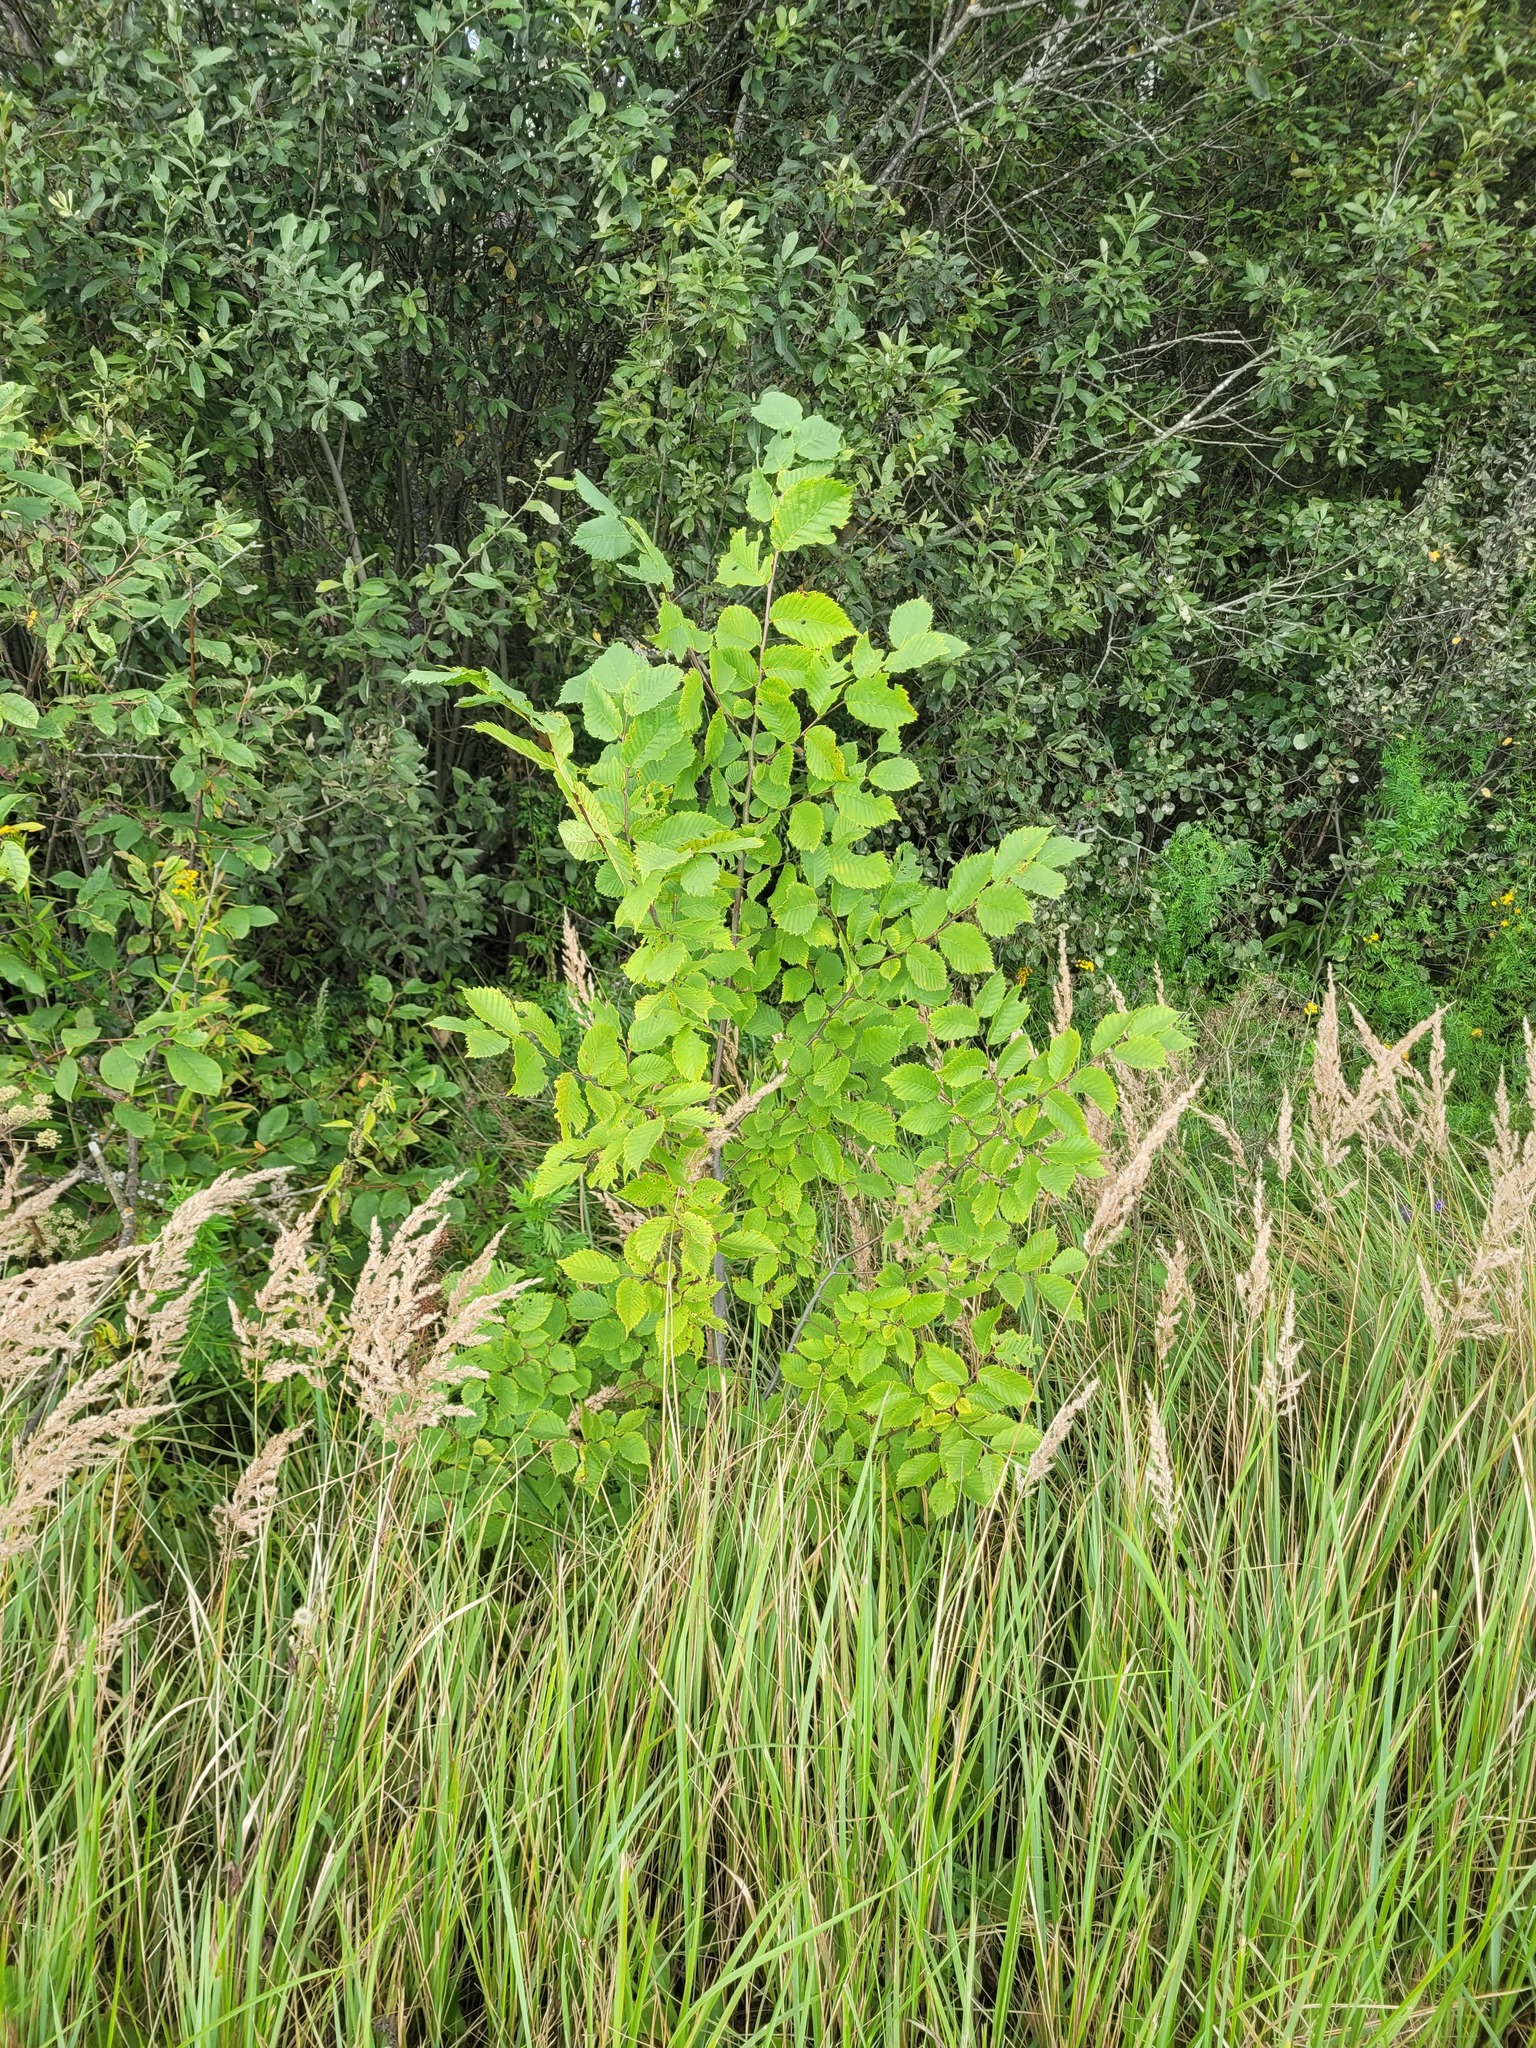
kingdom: Plantae
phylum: Tracheophyta
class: Magnoliopsida
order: Rosales
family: Ulmaceae
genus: Ulmus
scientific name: Ulmus laevis
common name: European white-elm
